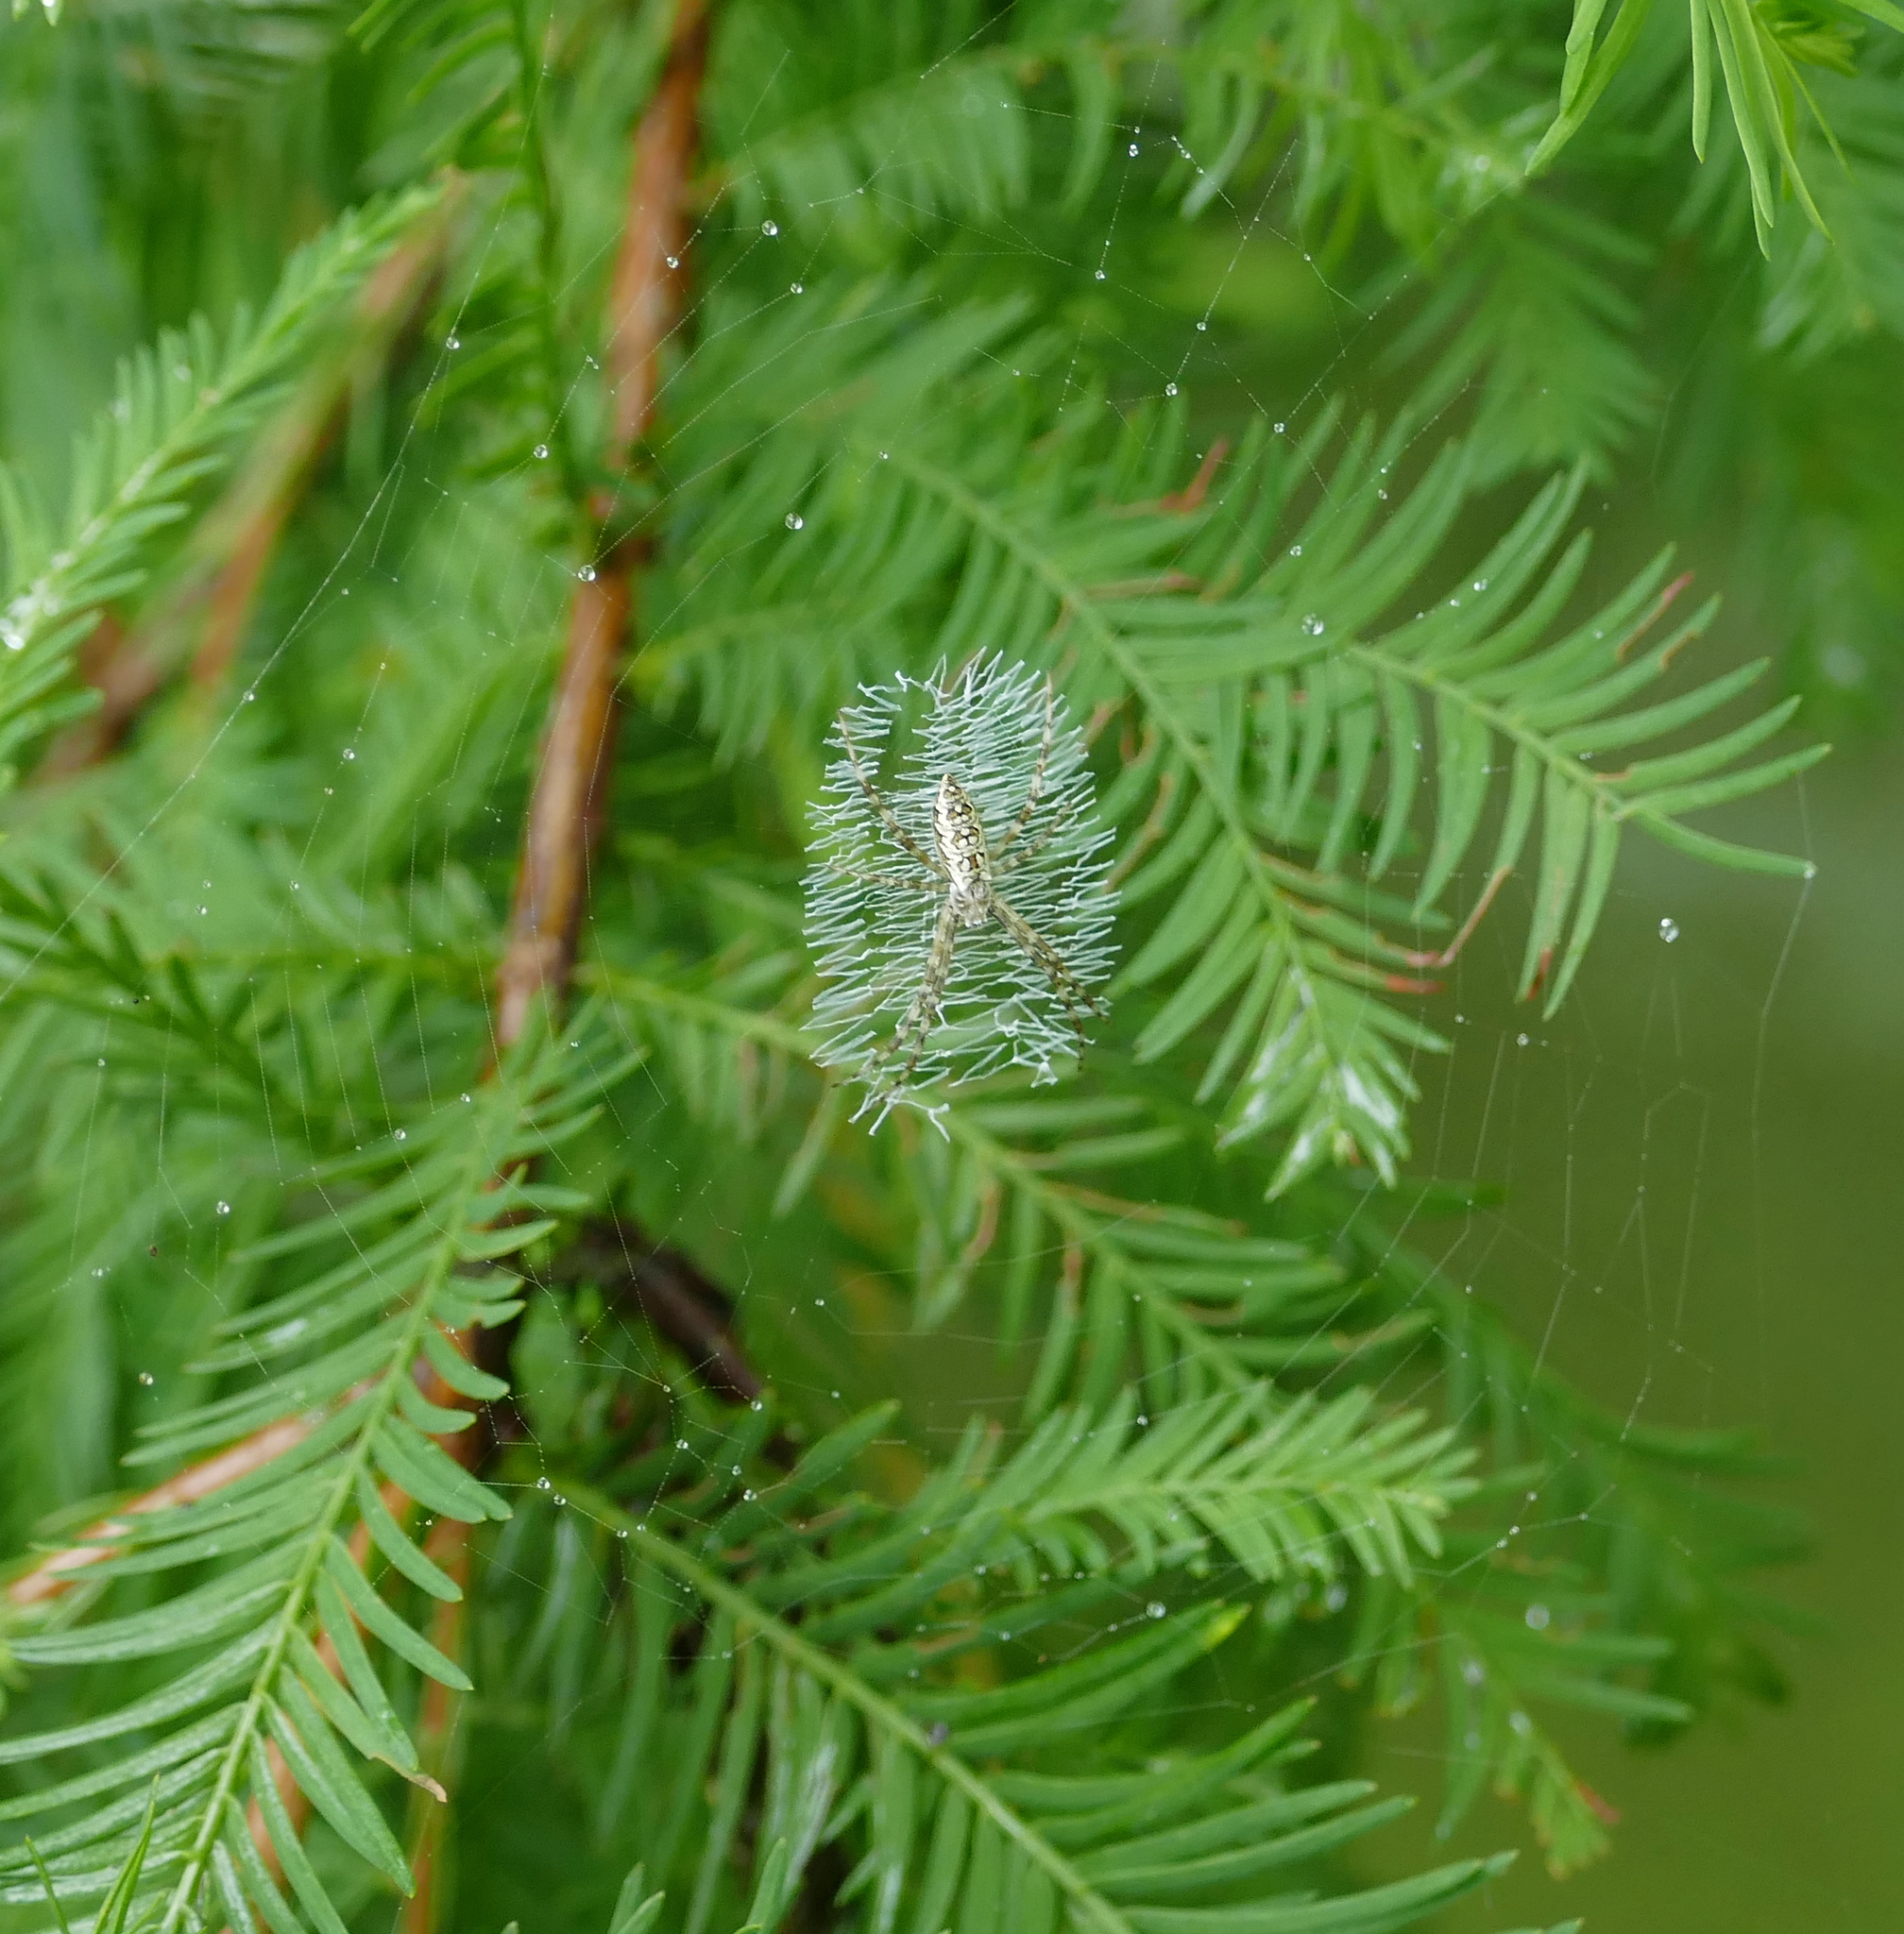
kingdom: Animalia
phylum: Arthropoda
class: Arachnida
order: Araneae
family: Araneidae
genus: Argiope
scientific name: Argiope aurantia
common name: Orb weavers
